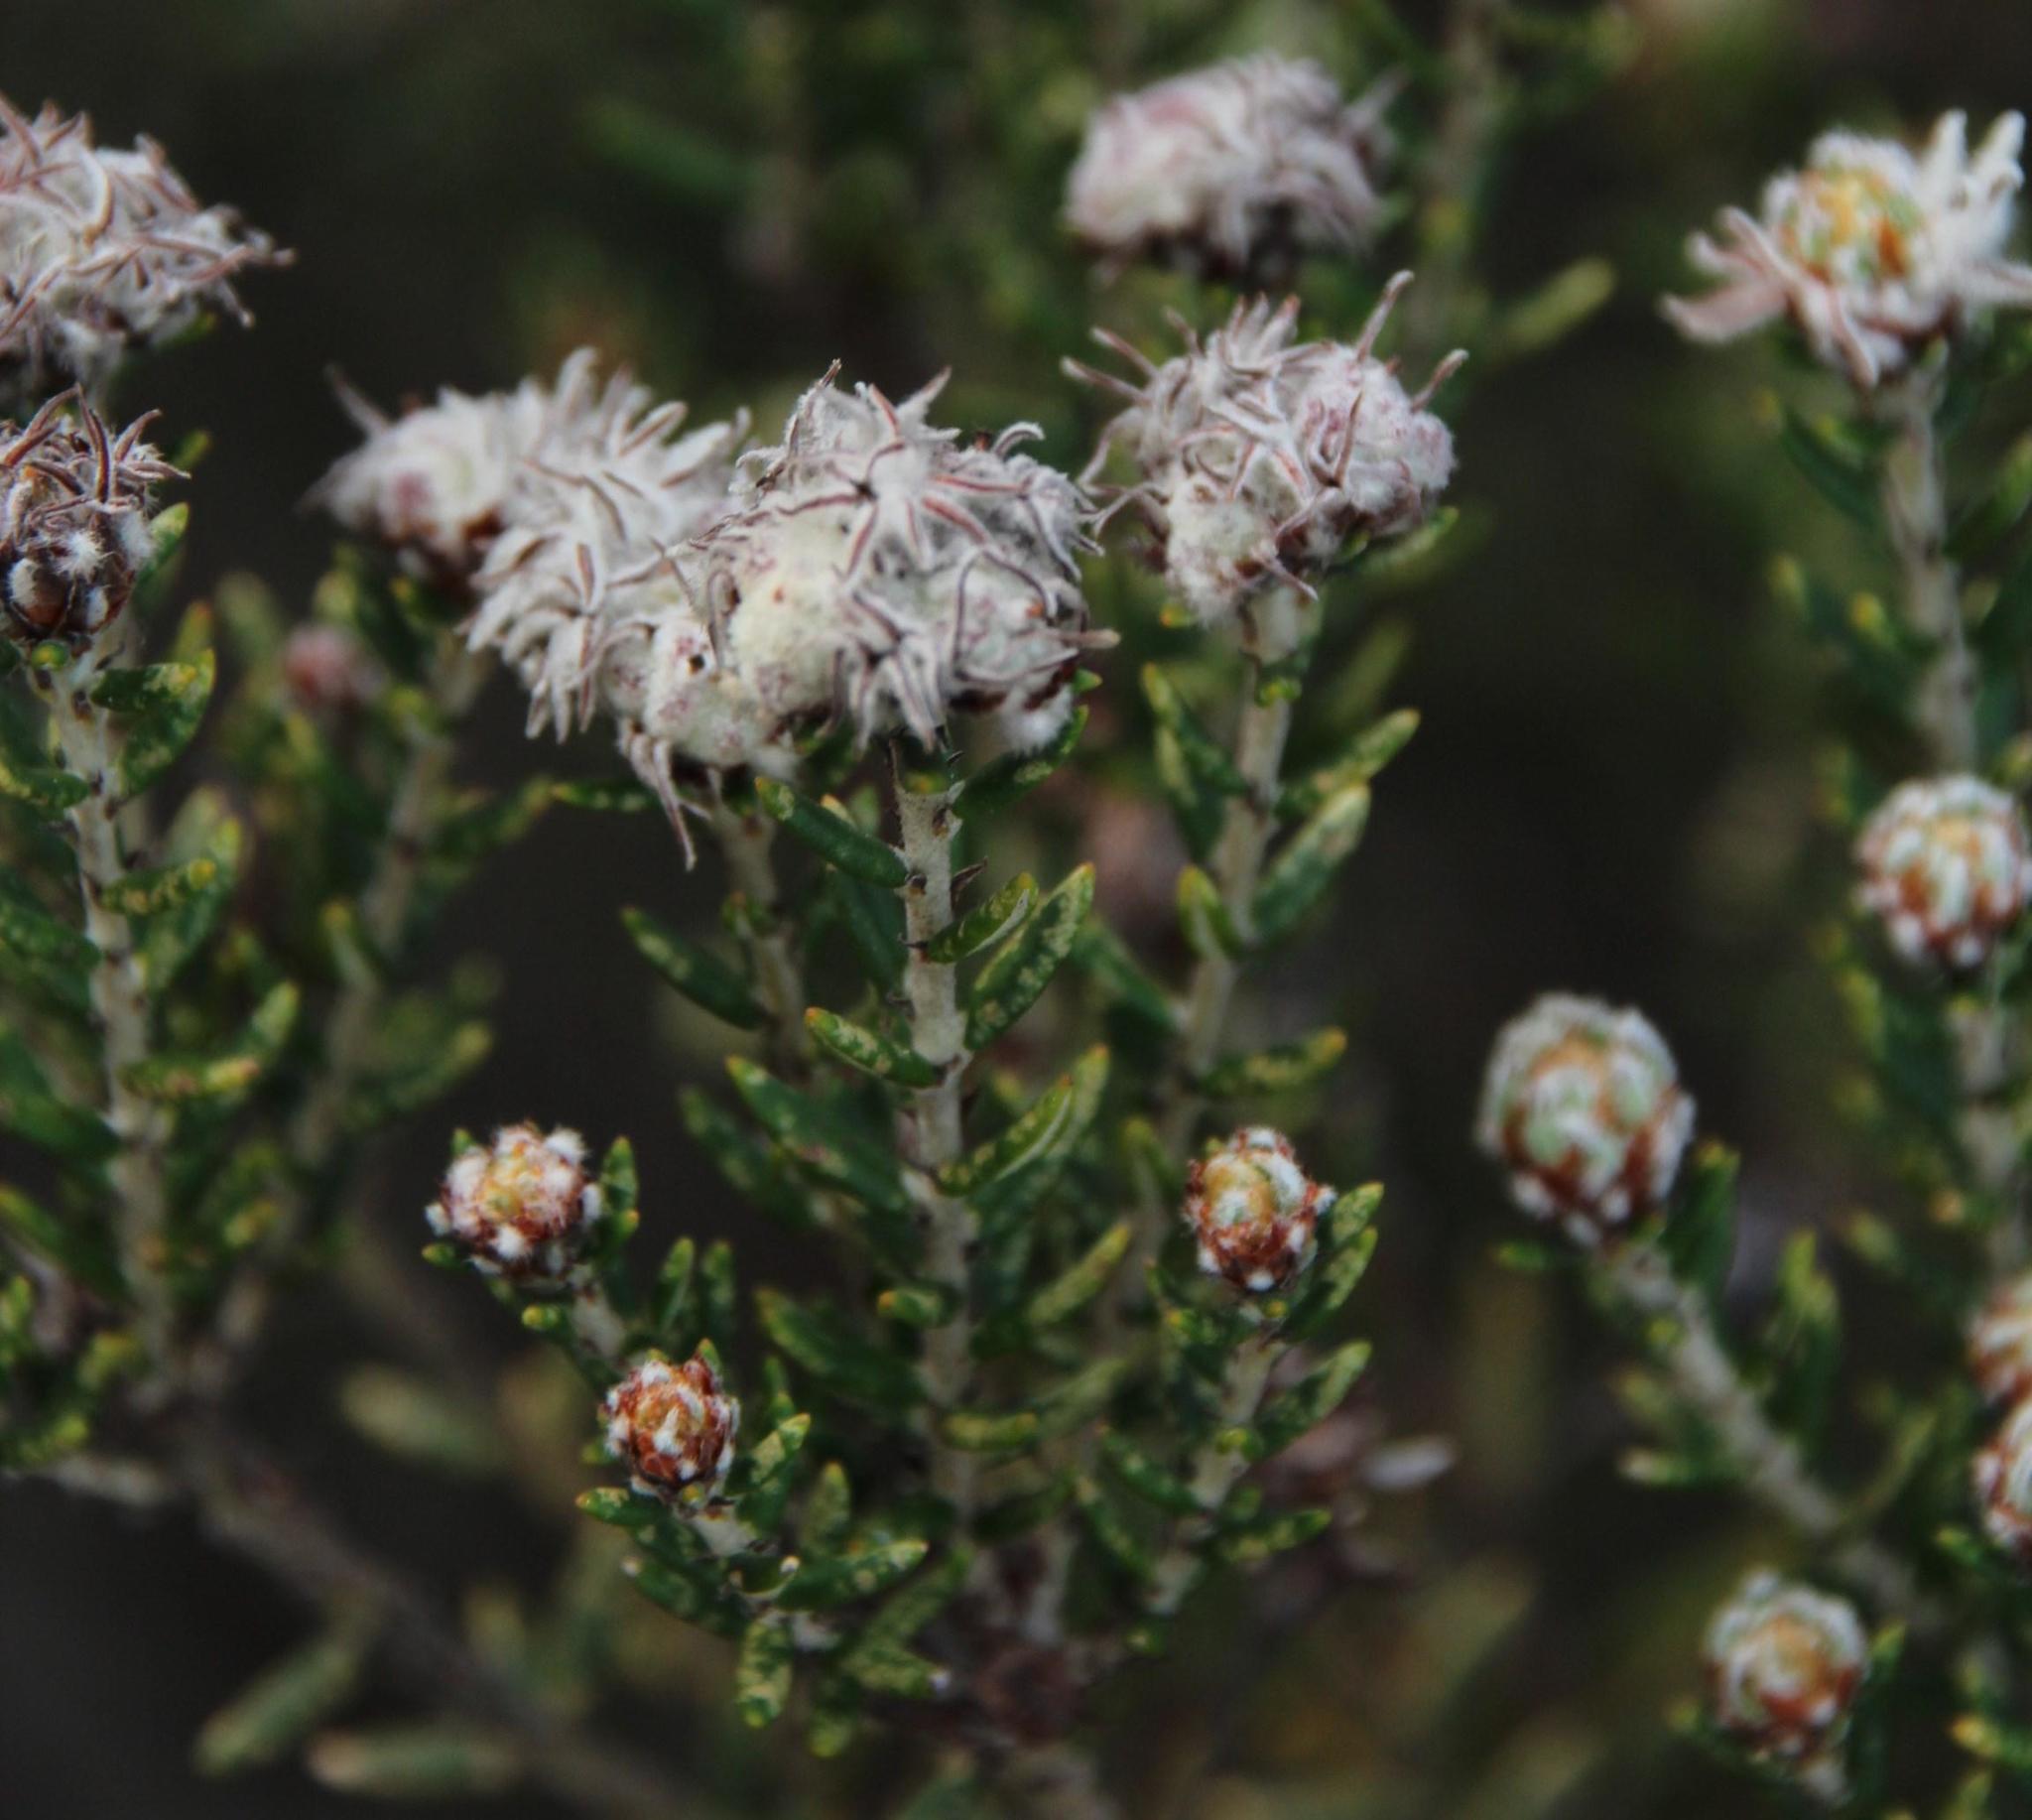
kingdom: Plantae
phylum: Tracheophyta
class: Magnoliopsida
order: Rosales
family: Rhamnaceae
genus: Trichocephalus
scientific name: Trichocephalus stipularis
